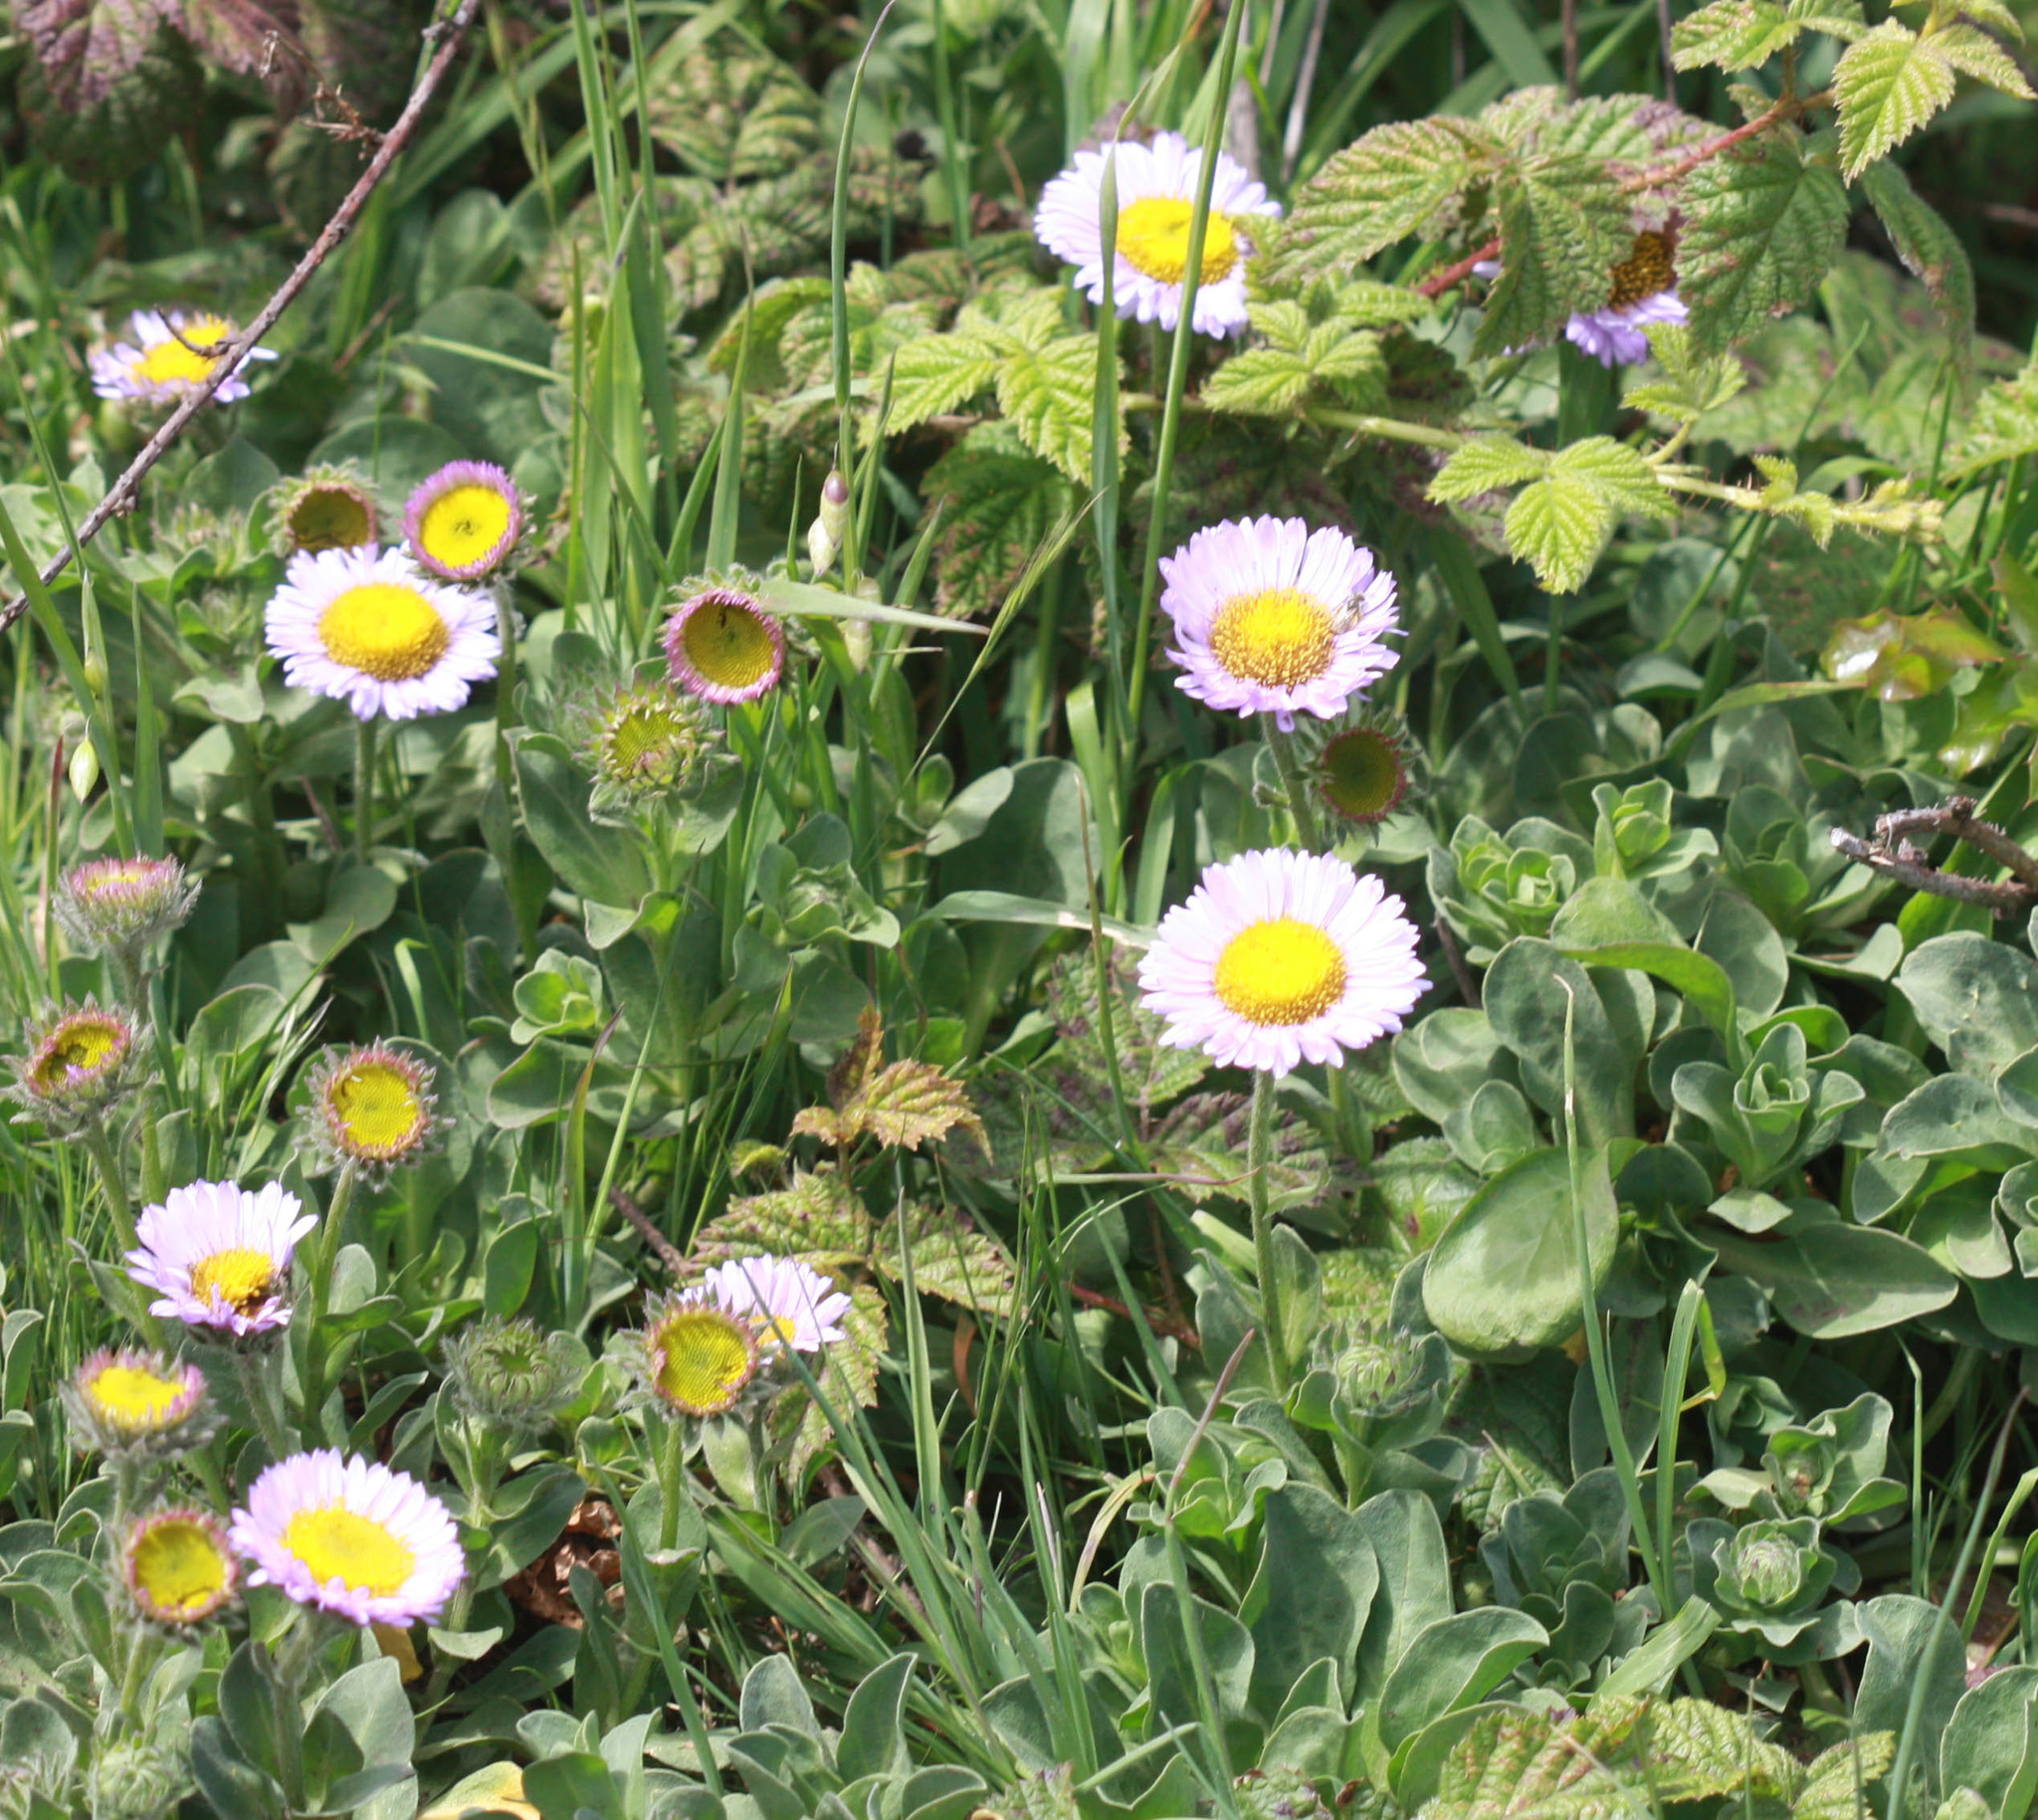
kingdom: Plantae
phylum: Tracheophyta
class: Magnoliopsida
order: Asterales
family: Asteraceae
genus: Erigeron
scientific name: Erigeron glaucus
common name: Seaside daisy
